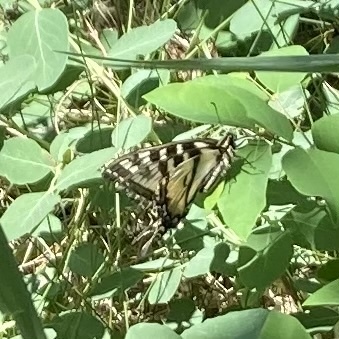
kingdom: Animalia
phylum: Arthropoda
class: Insecta
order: Lepidoptera
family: Papilionidae
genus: Papilio
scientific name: Papilio canadensis
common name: Canadian tiger swallowtail
